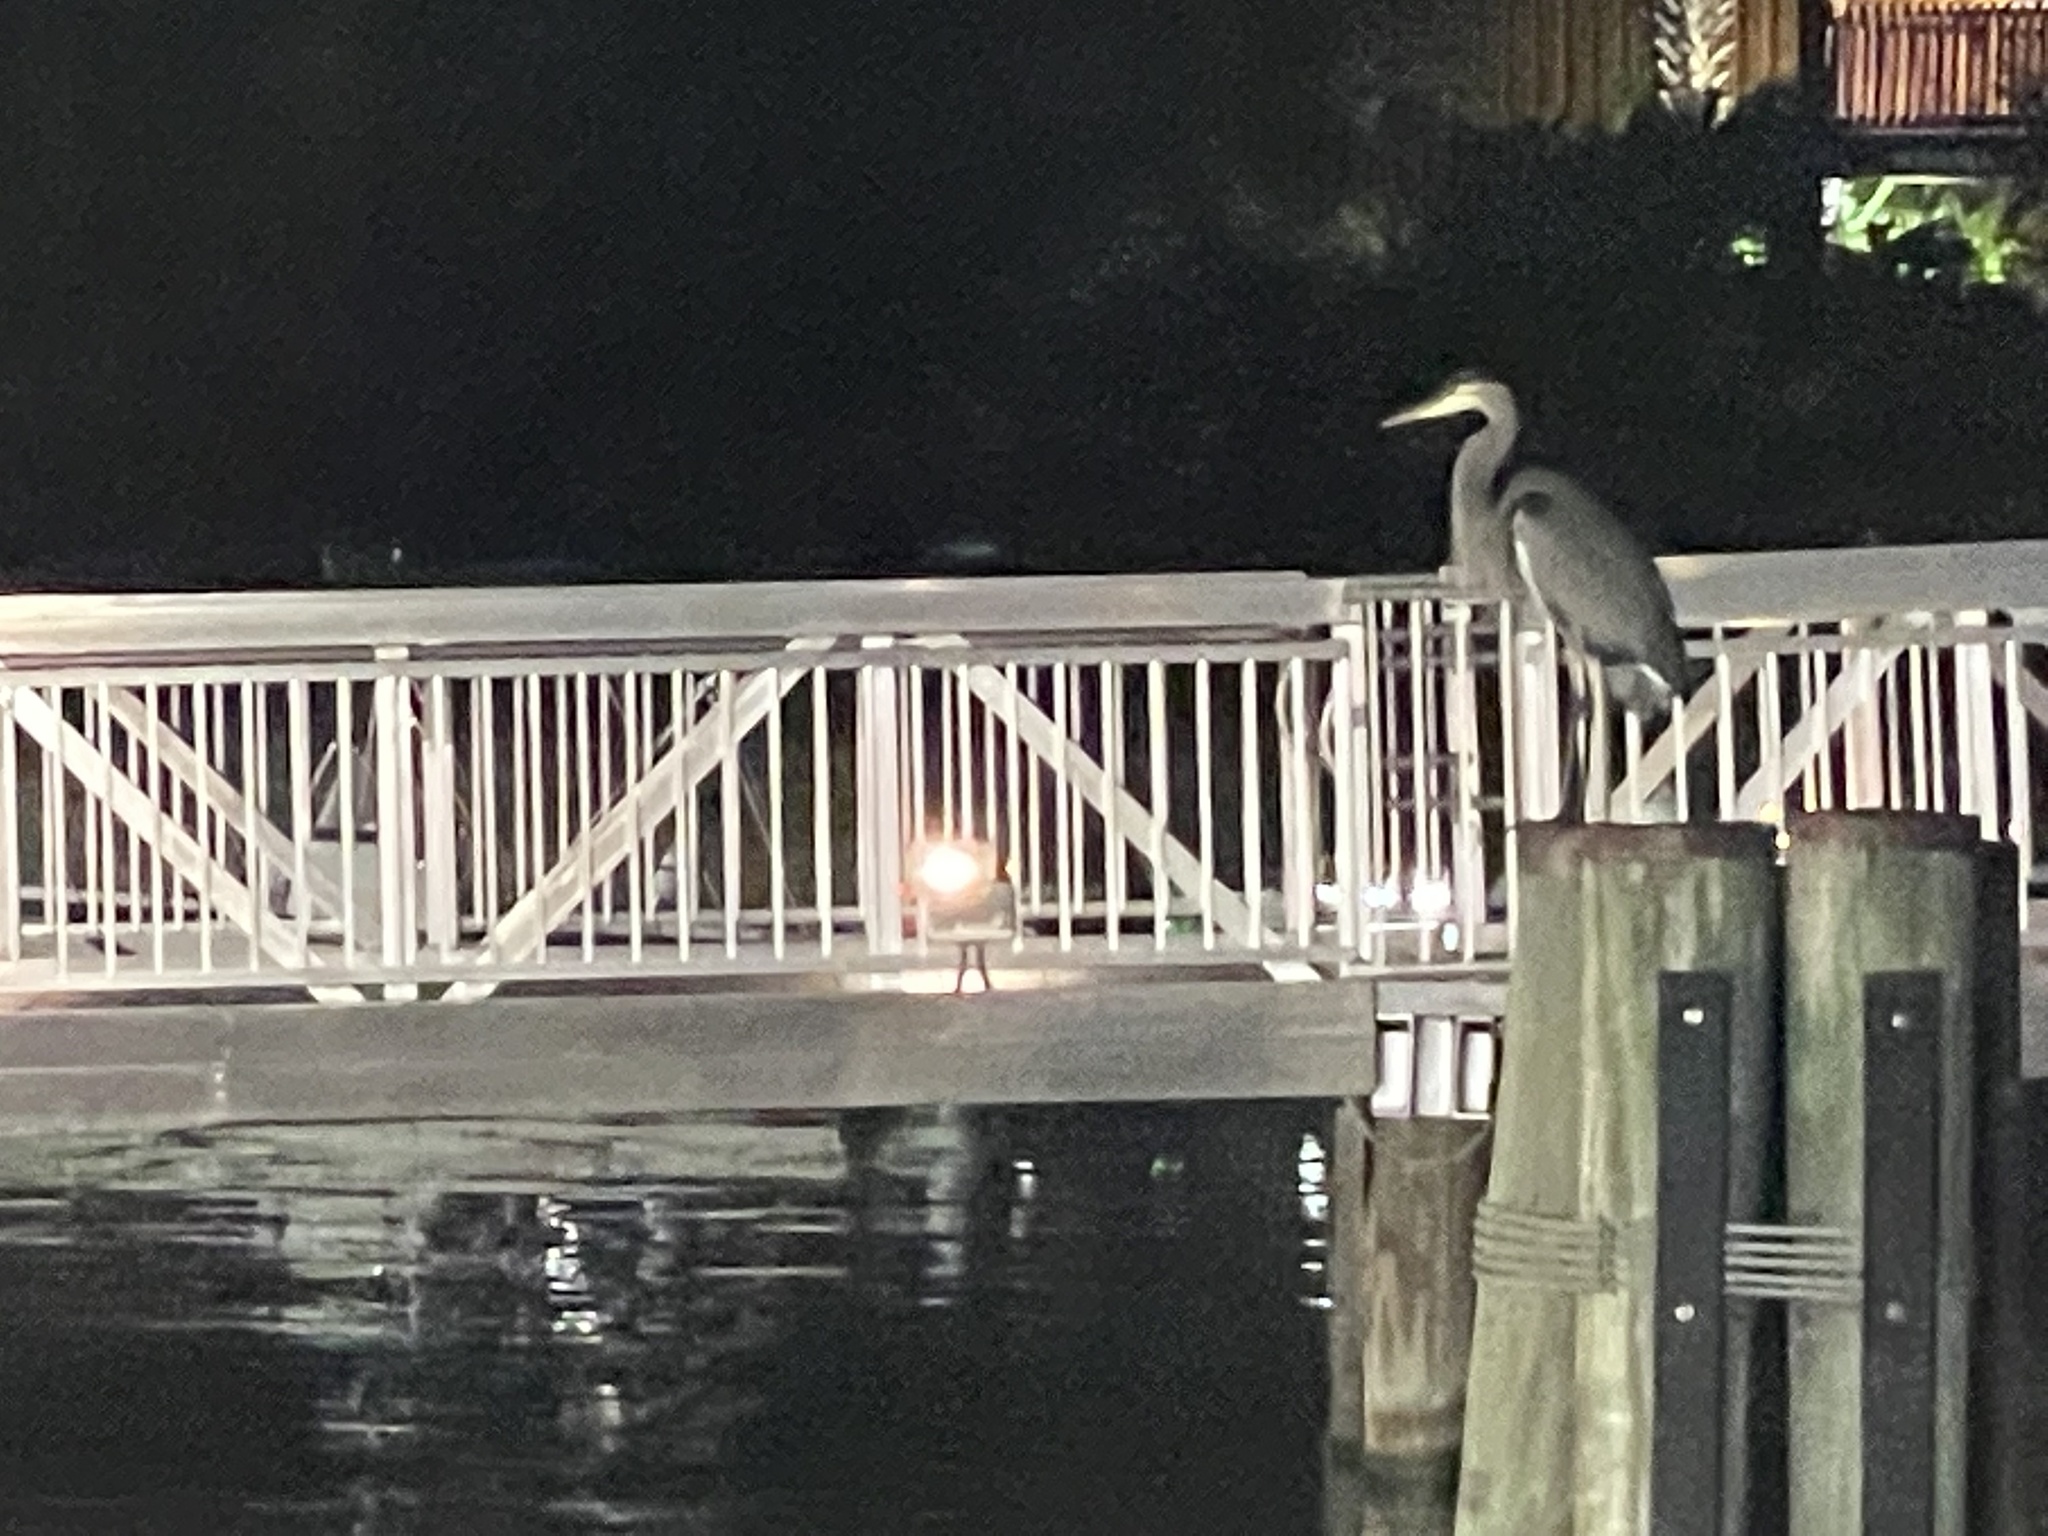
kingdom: Animalia
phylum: Chordata
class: Aves
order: Pelecaniformes
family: Ardeidae
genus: Ardea
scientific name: Ardea herodias
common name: Great blue heron
